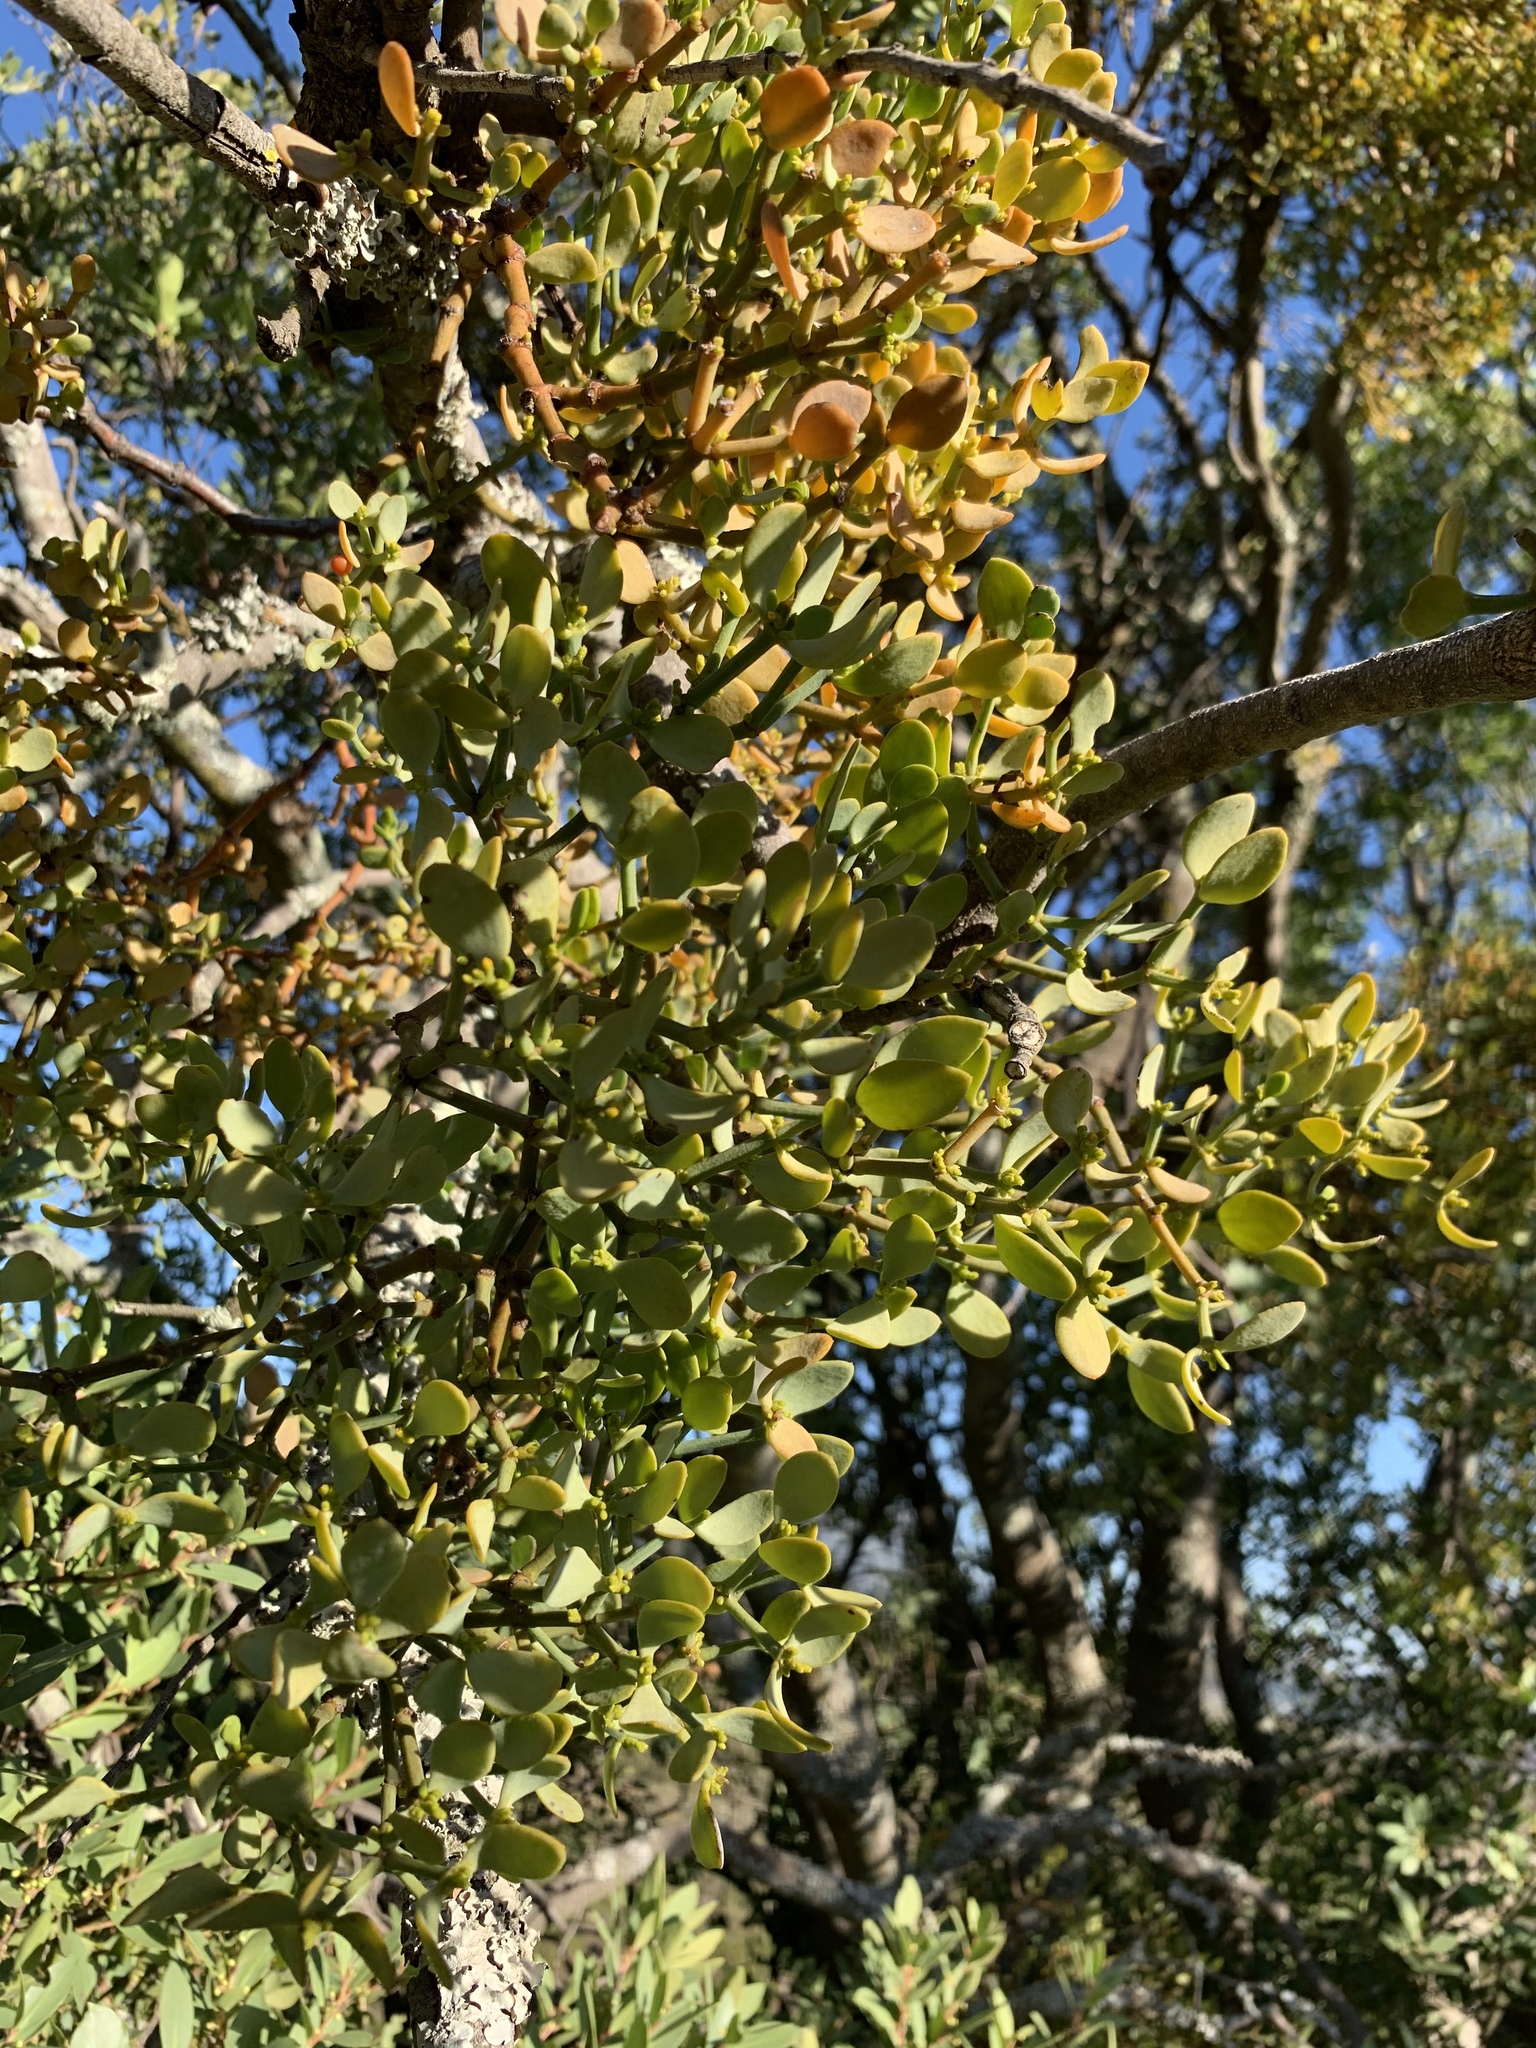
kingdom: Plantae
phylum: Tracheophyta
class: Magnoliopsida
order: Santalales
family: Viscaceae
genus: Viscum
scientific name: Viscum rotundifolium
